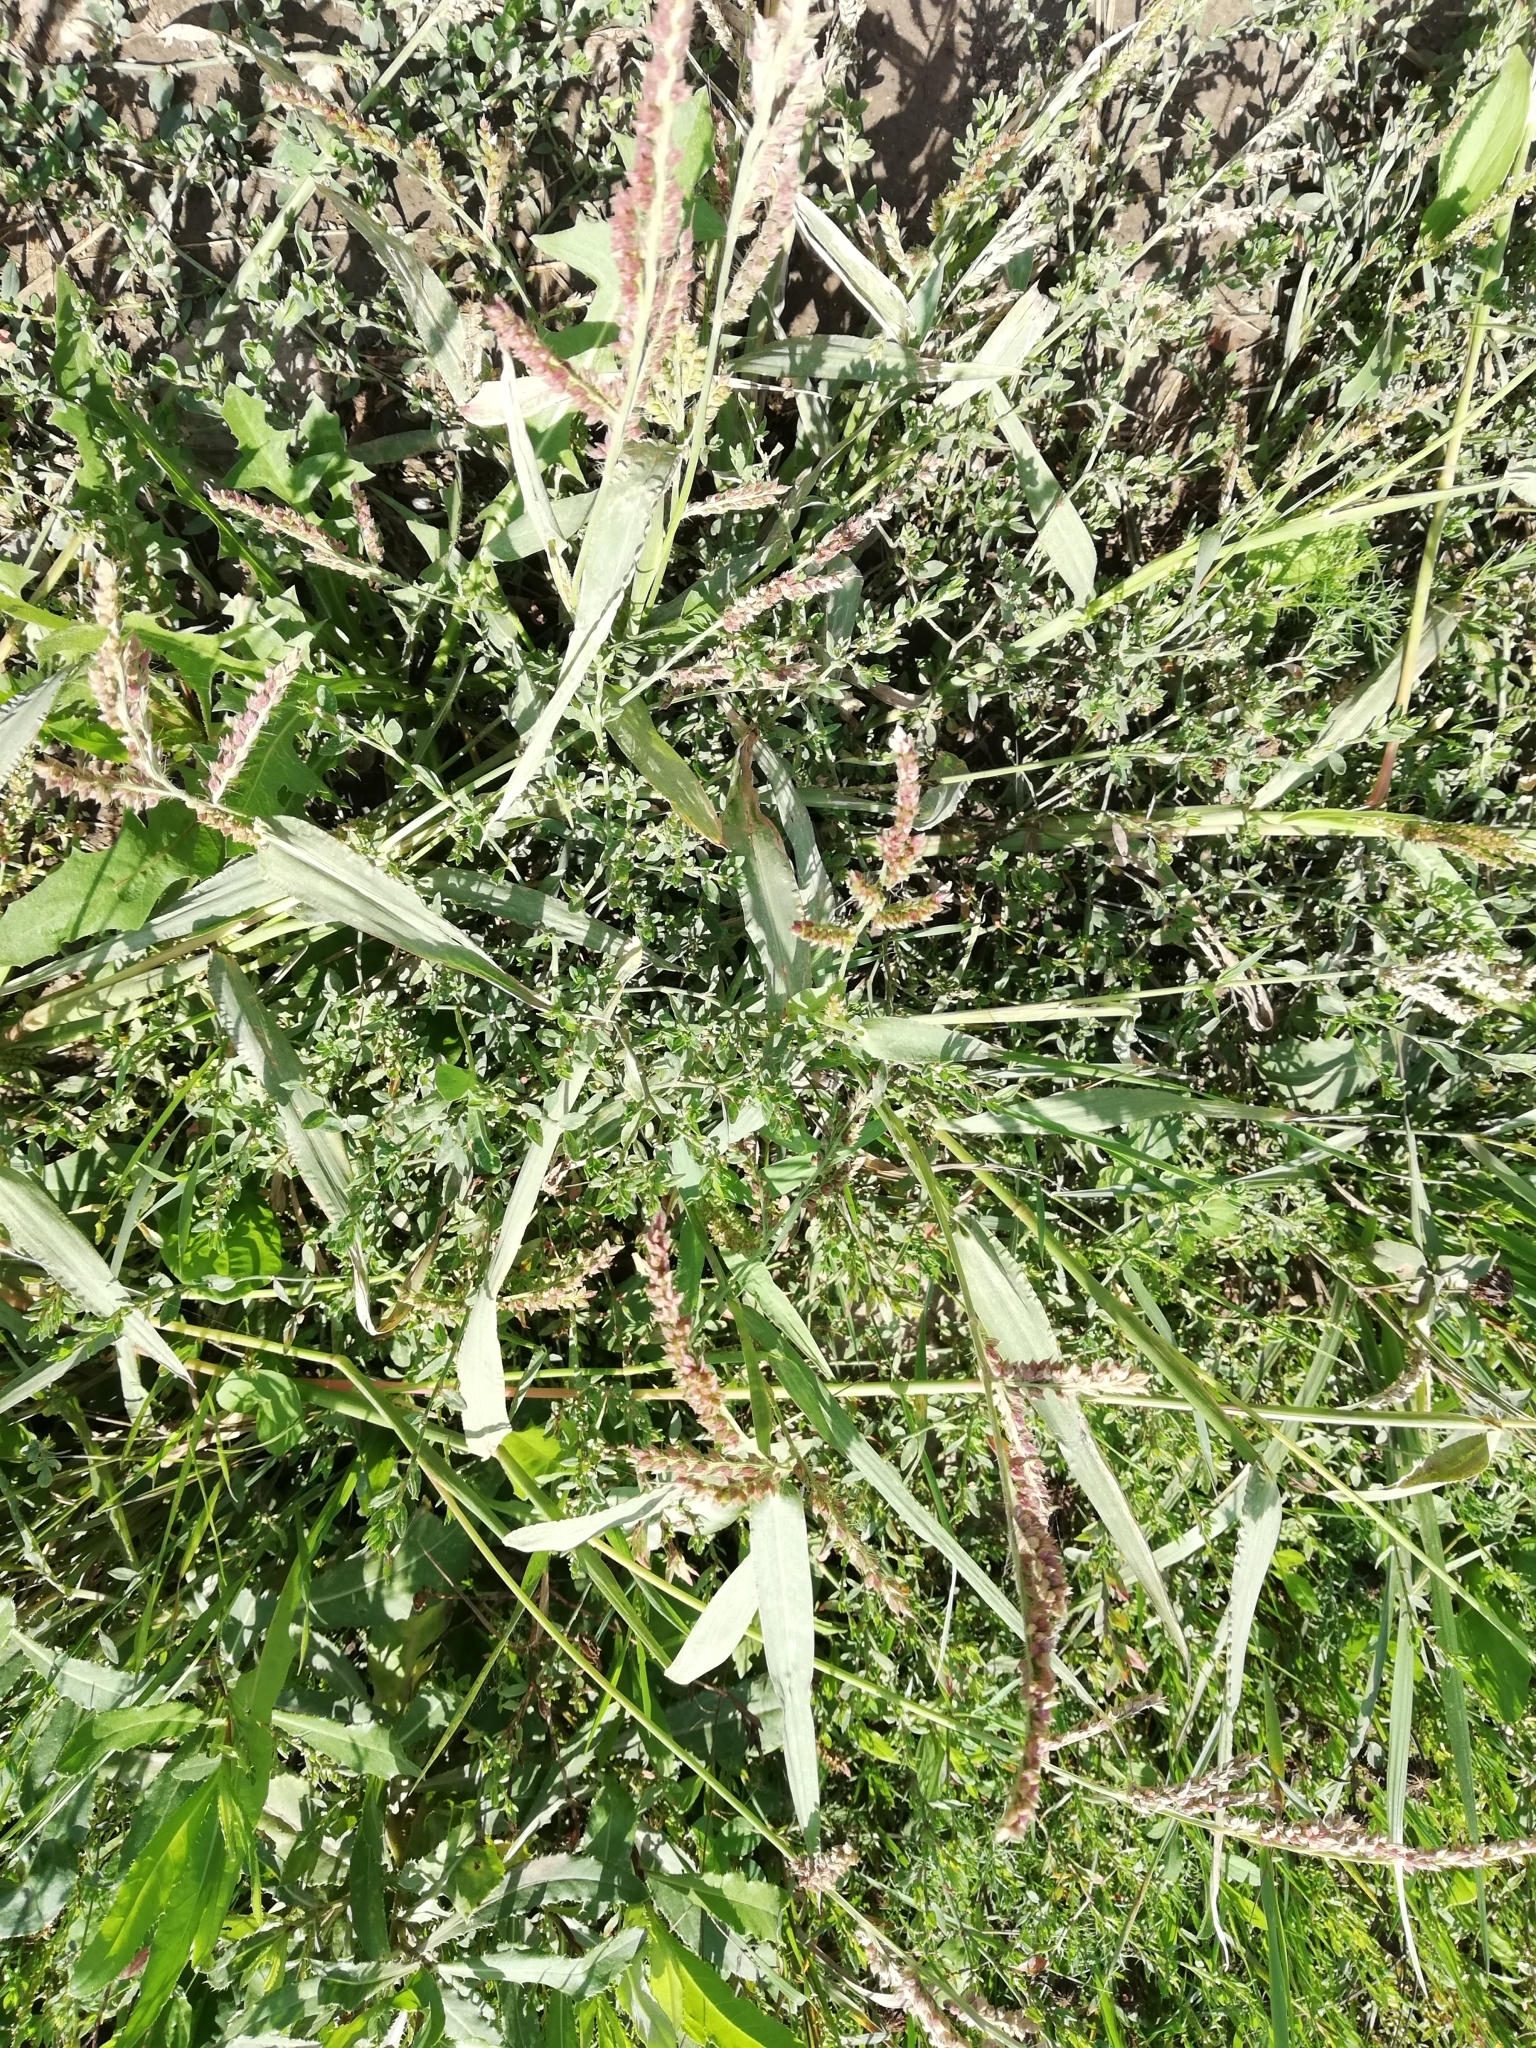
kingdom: Plantae
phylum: Tracheophyta
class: Liliopsida
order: Poales
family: Poaceae
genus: Echinochloa
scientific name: Echinochloa crus-galli
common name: Cockspur
